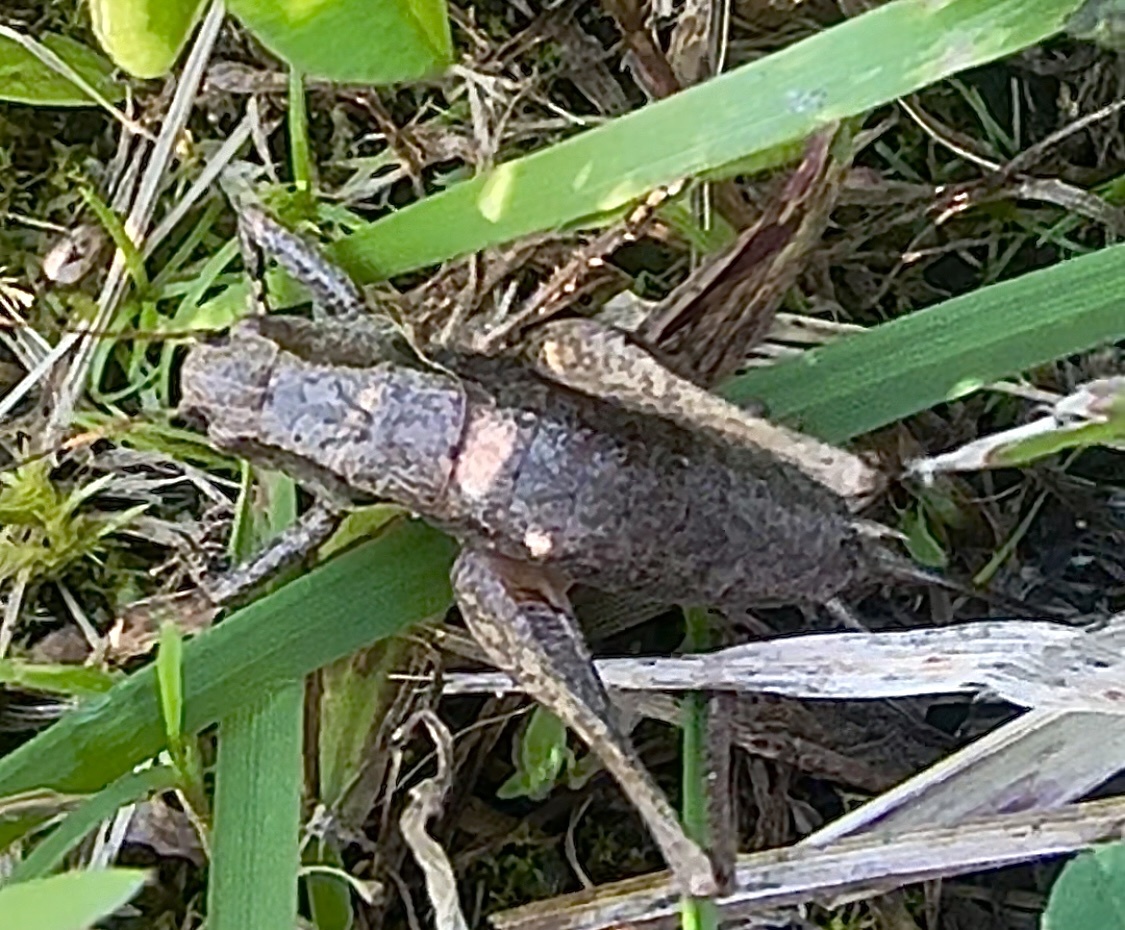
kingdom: Animalia
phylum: Arthropoda
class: Insecta
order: Orthoptera
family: Tettigoniidae
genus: Pholidoptera
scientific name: Pholidoptera griseoaptera
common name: Dark bush-cricket
